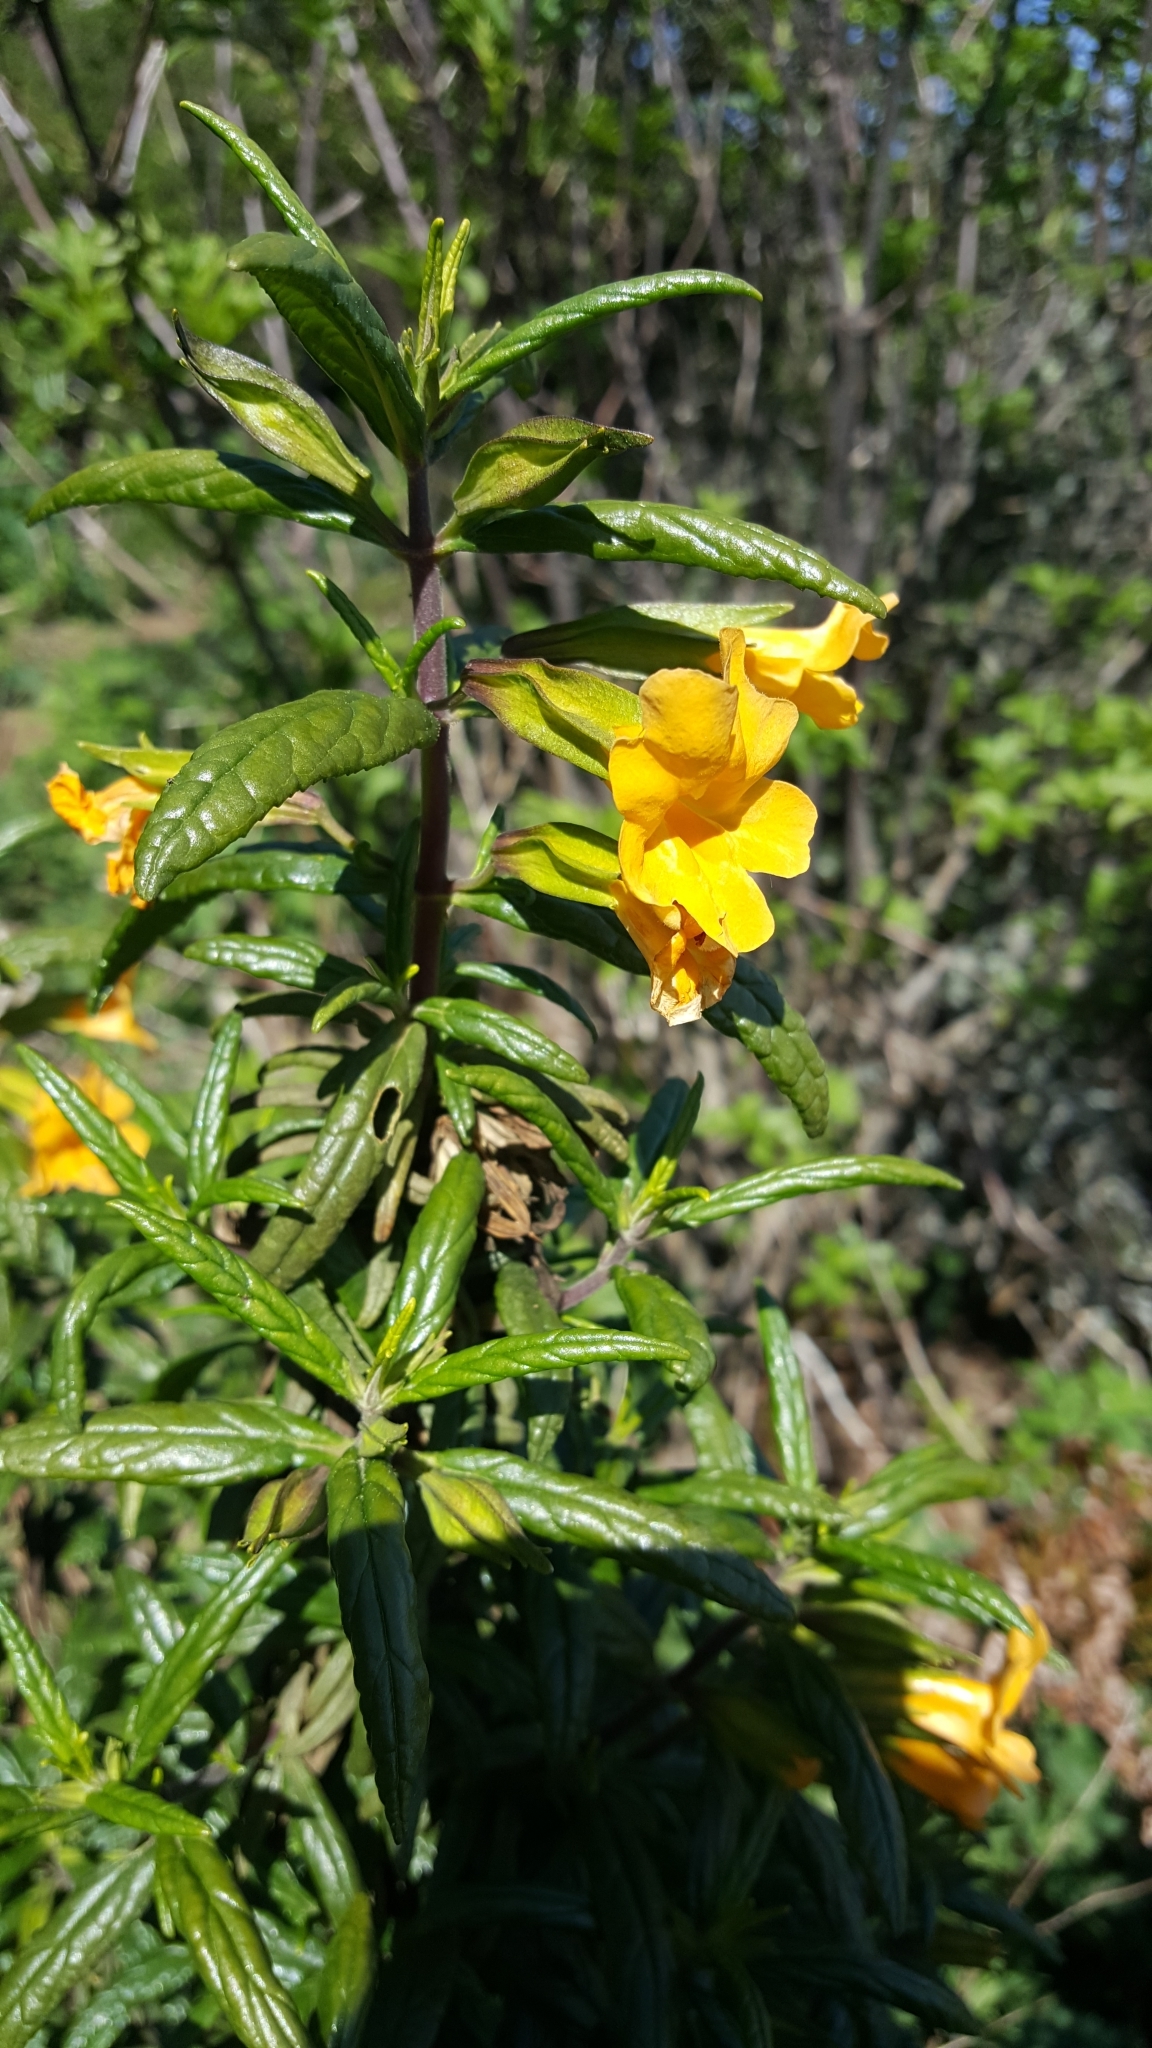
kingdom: Plantae
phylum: Tracheophyta
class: Magnoliopsida
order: Lamiales
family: Phrymaceae
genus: Diplacus
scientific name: Diplacus aurantiacus
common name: Bush monkey-flower
